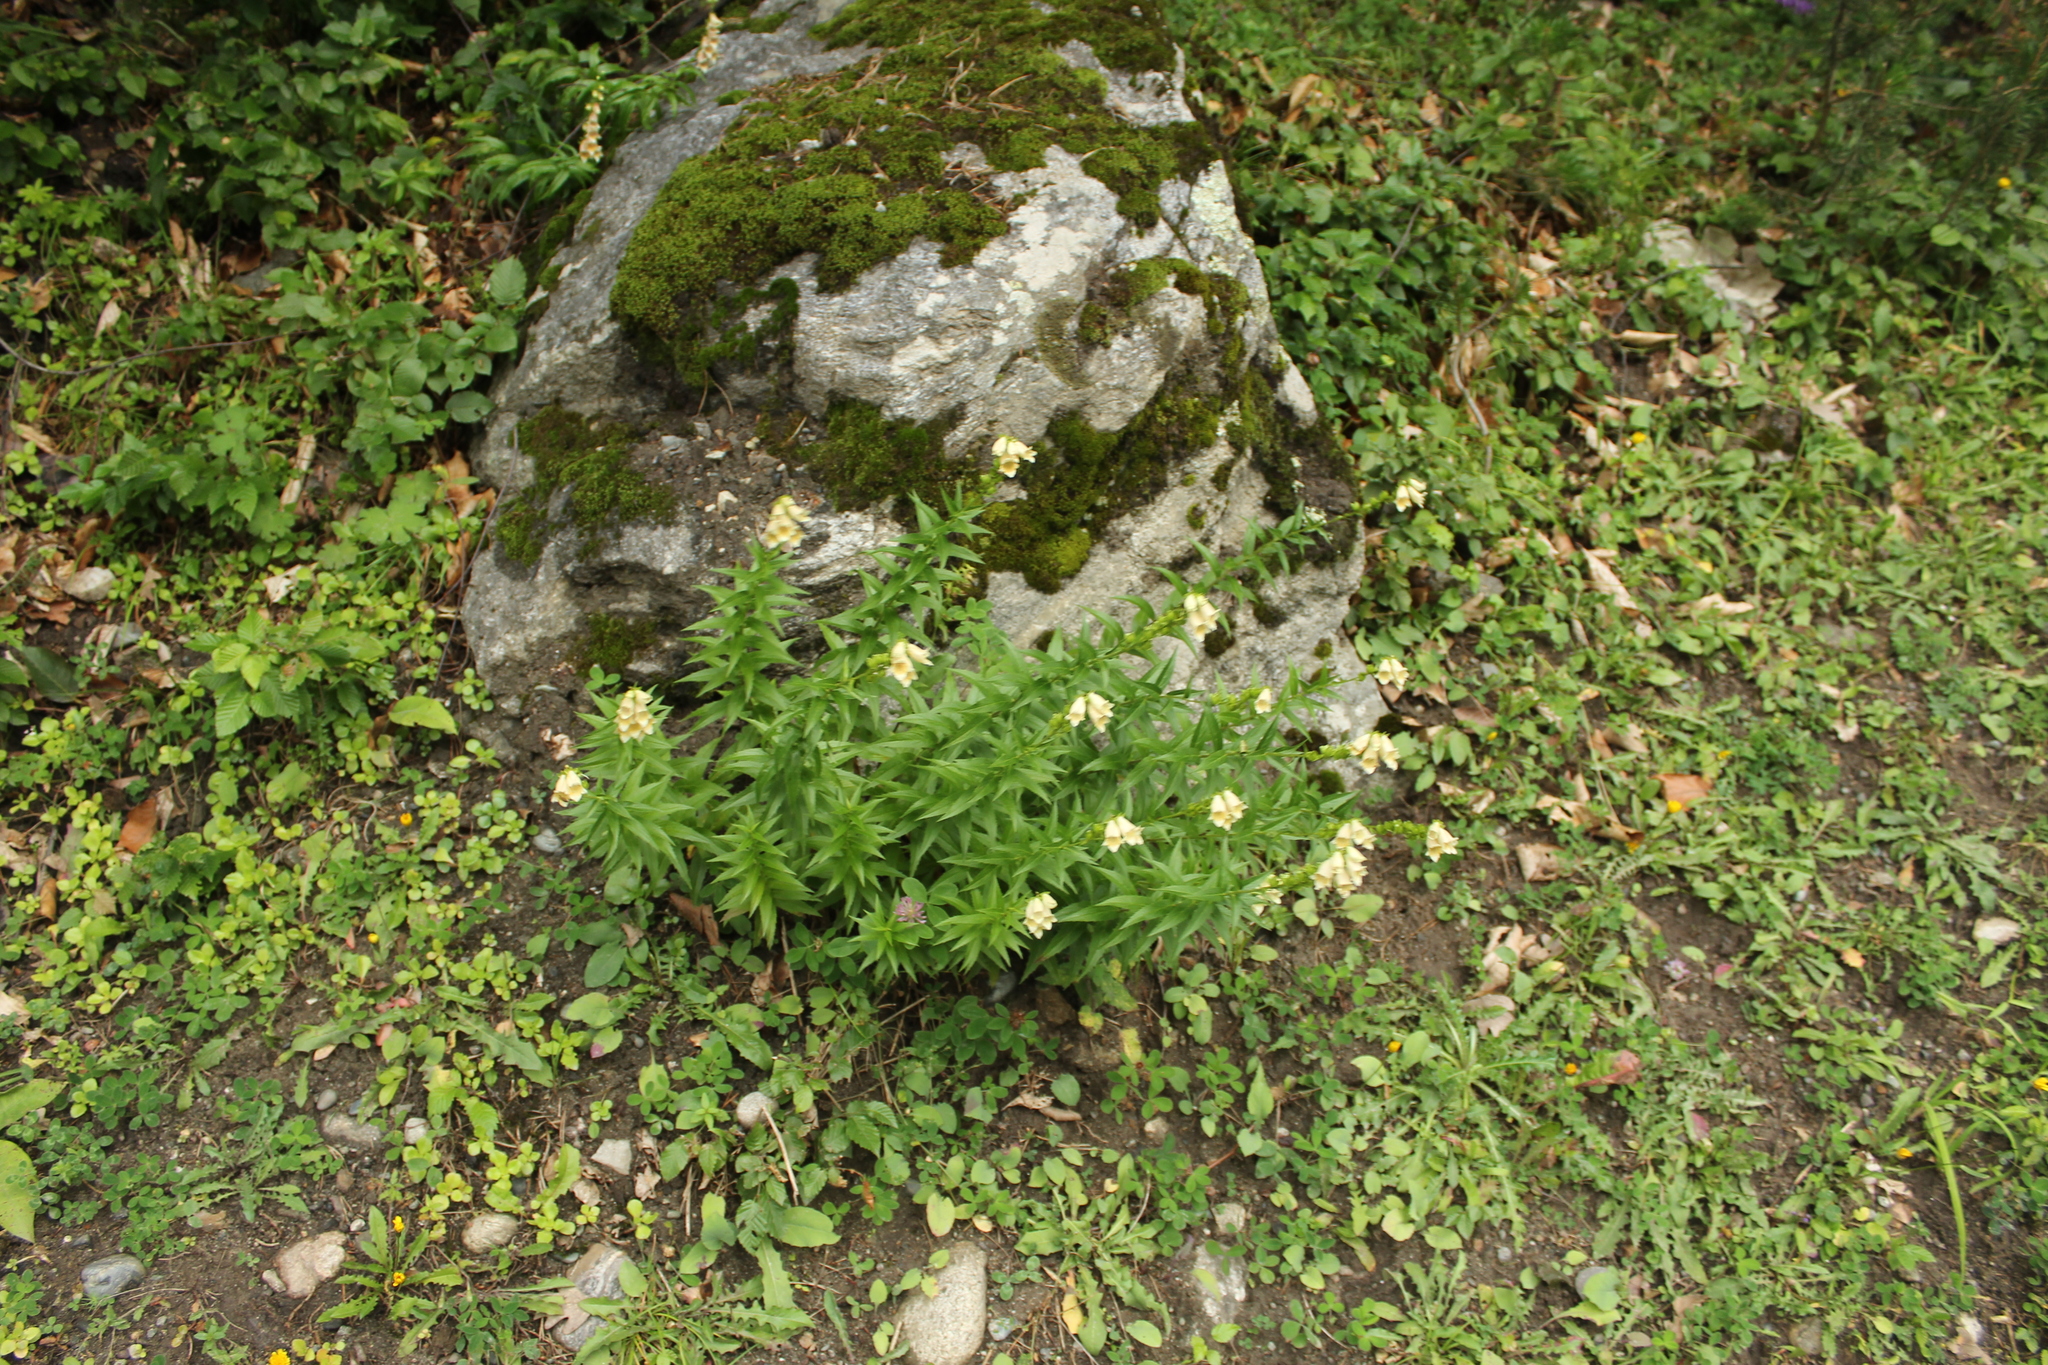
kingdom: Plantae
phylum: Tracheophyta
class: Magnoliopsida
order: Lamiales
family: Plantaginaceae
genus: Digitalis
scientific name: Digitalis ciliata
